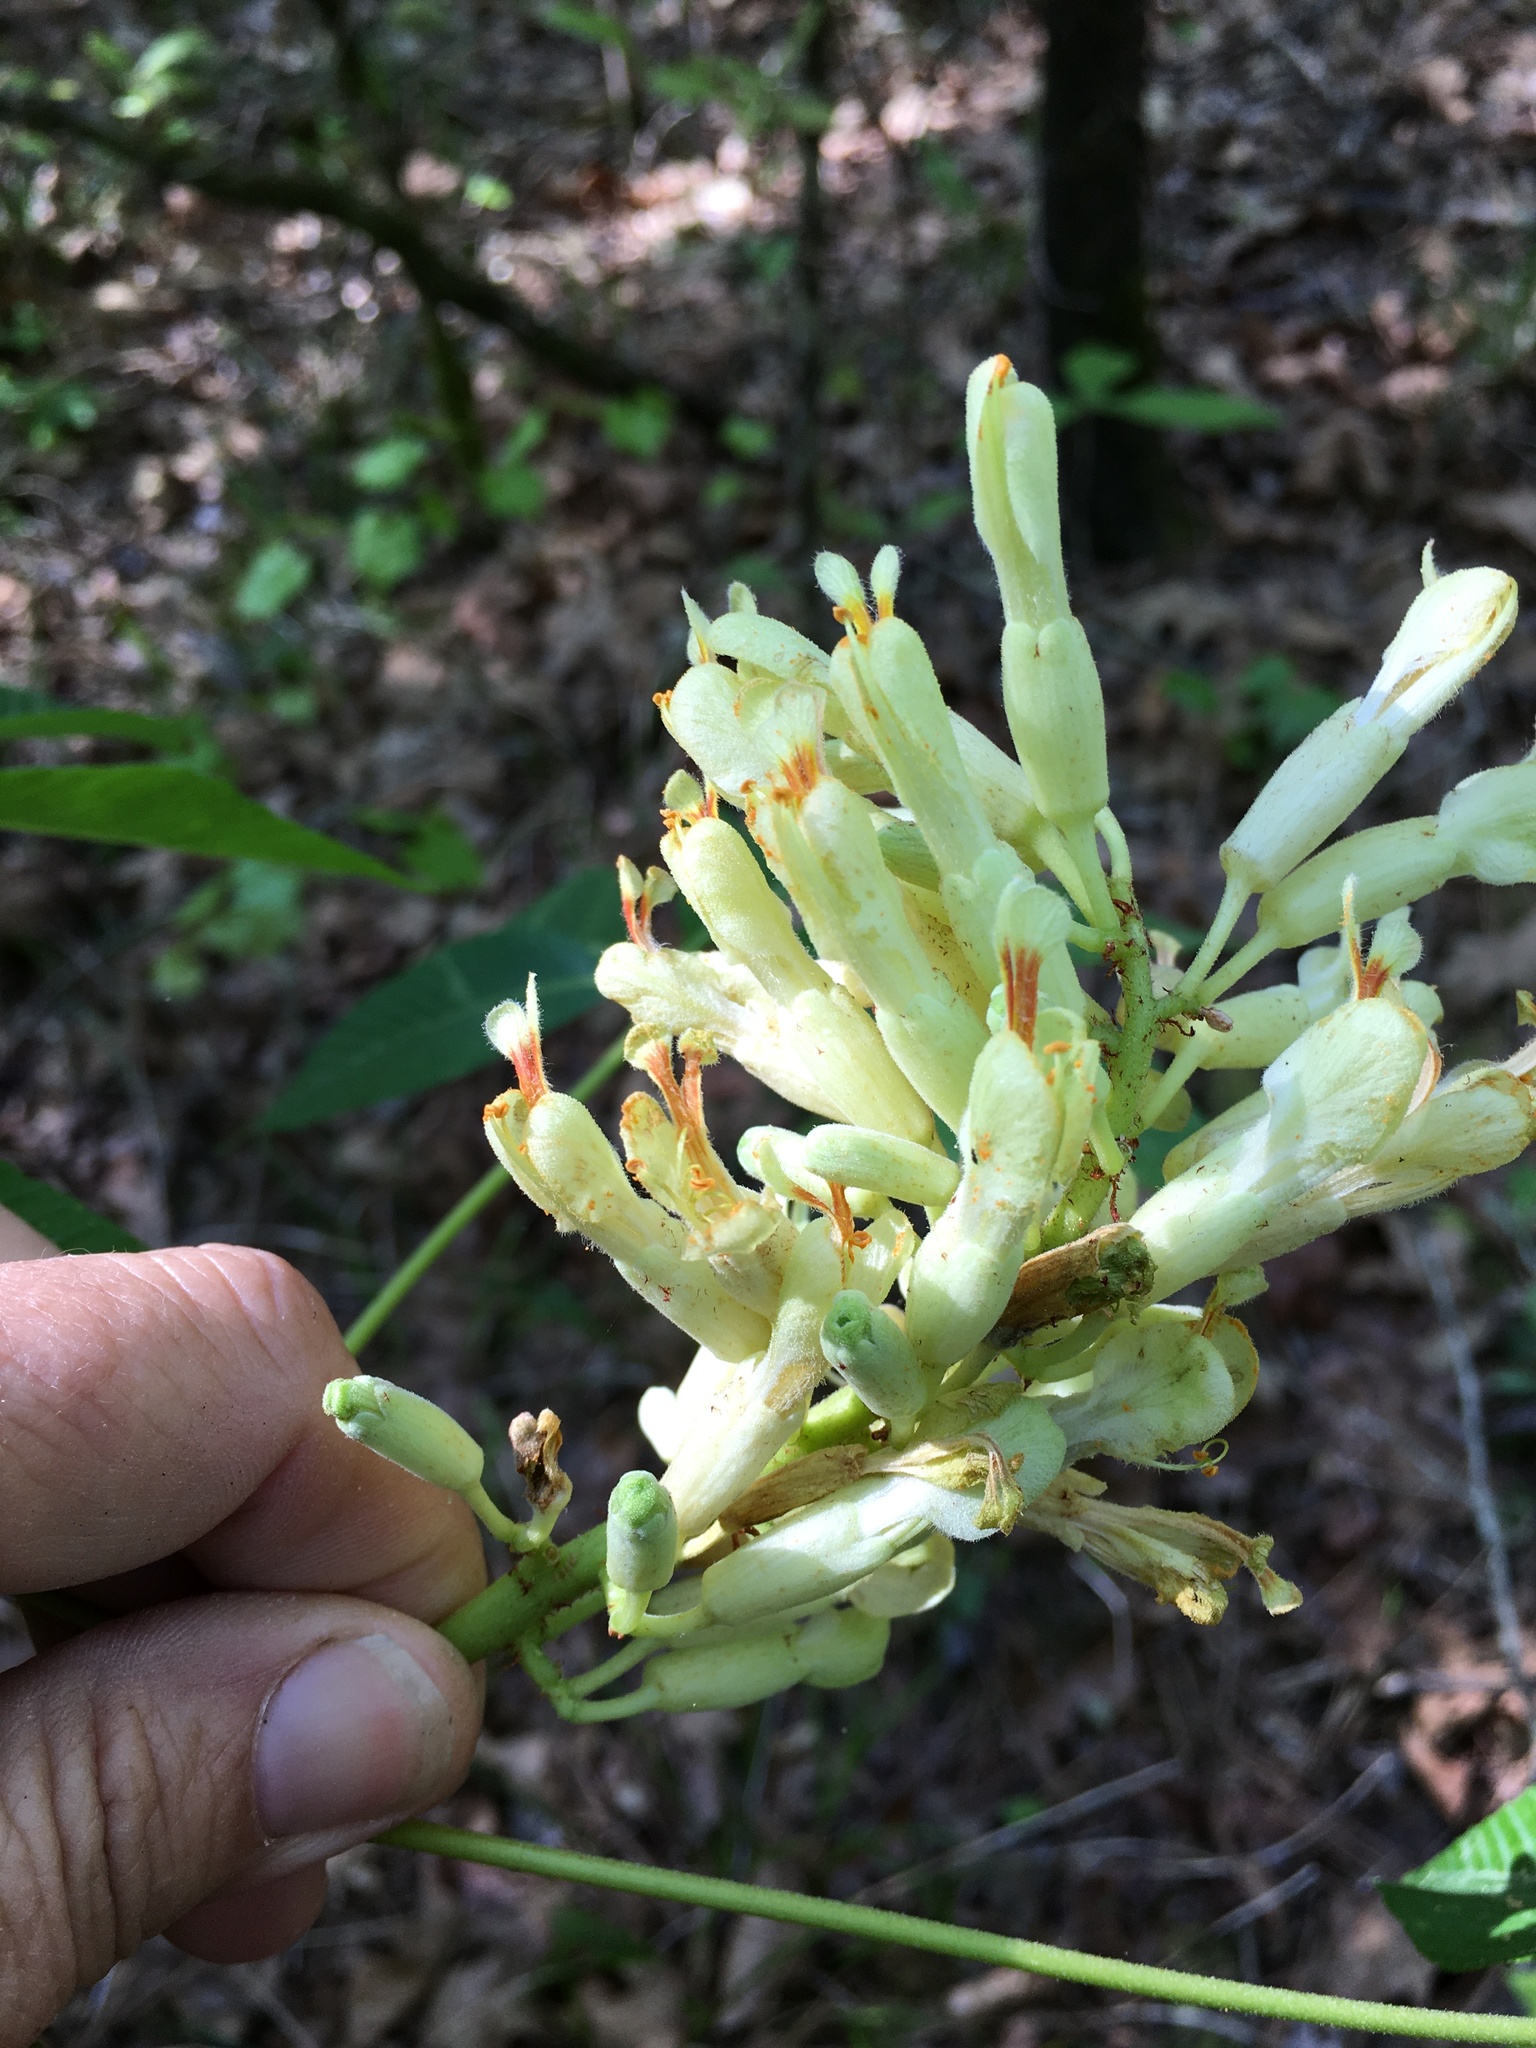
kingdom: Plantae
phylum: Tracheophyta
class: Magnoliopsida
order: Sapindales
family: Sapindaceae
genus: Aesculus
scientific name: Aesculus sylvatica
